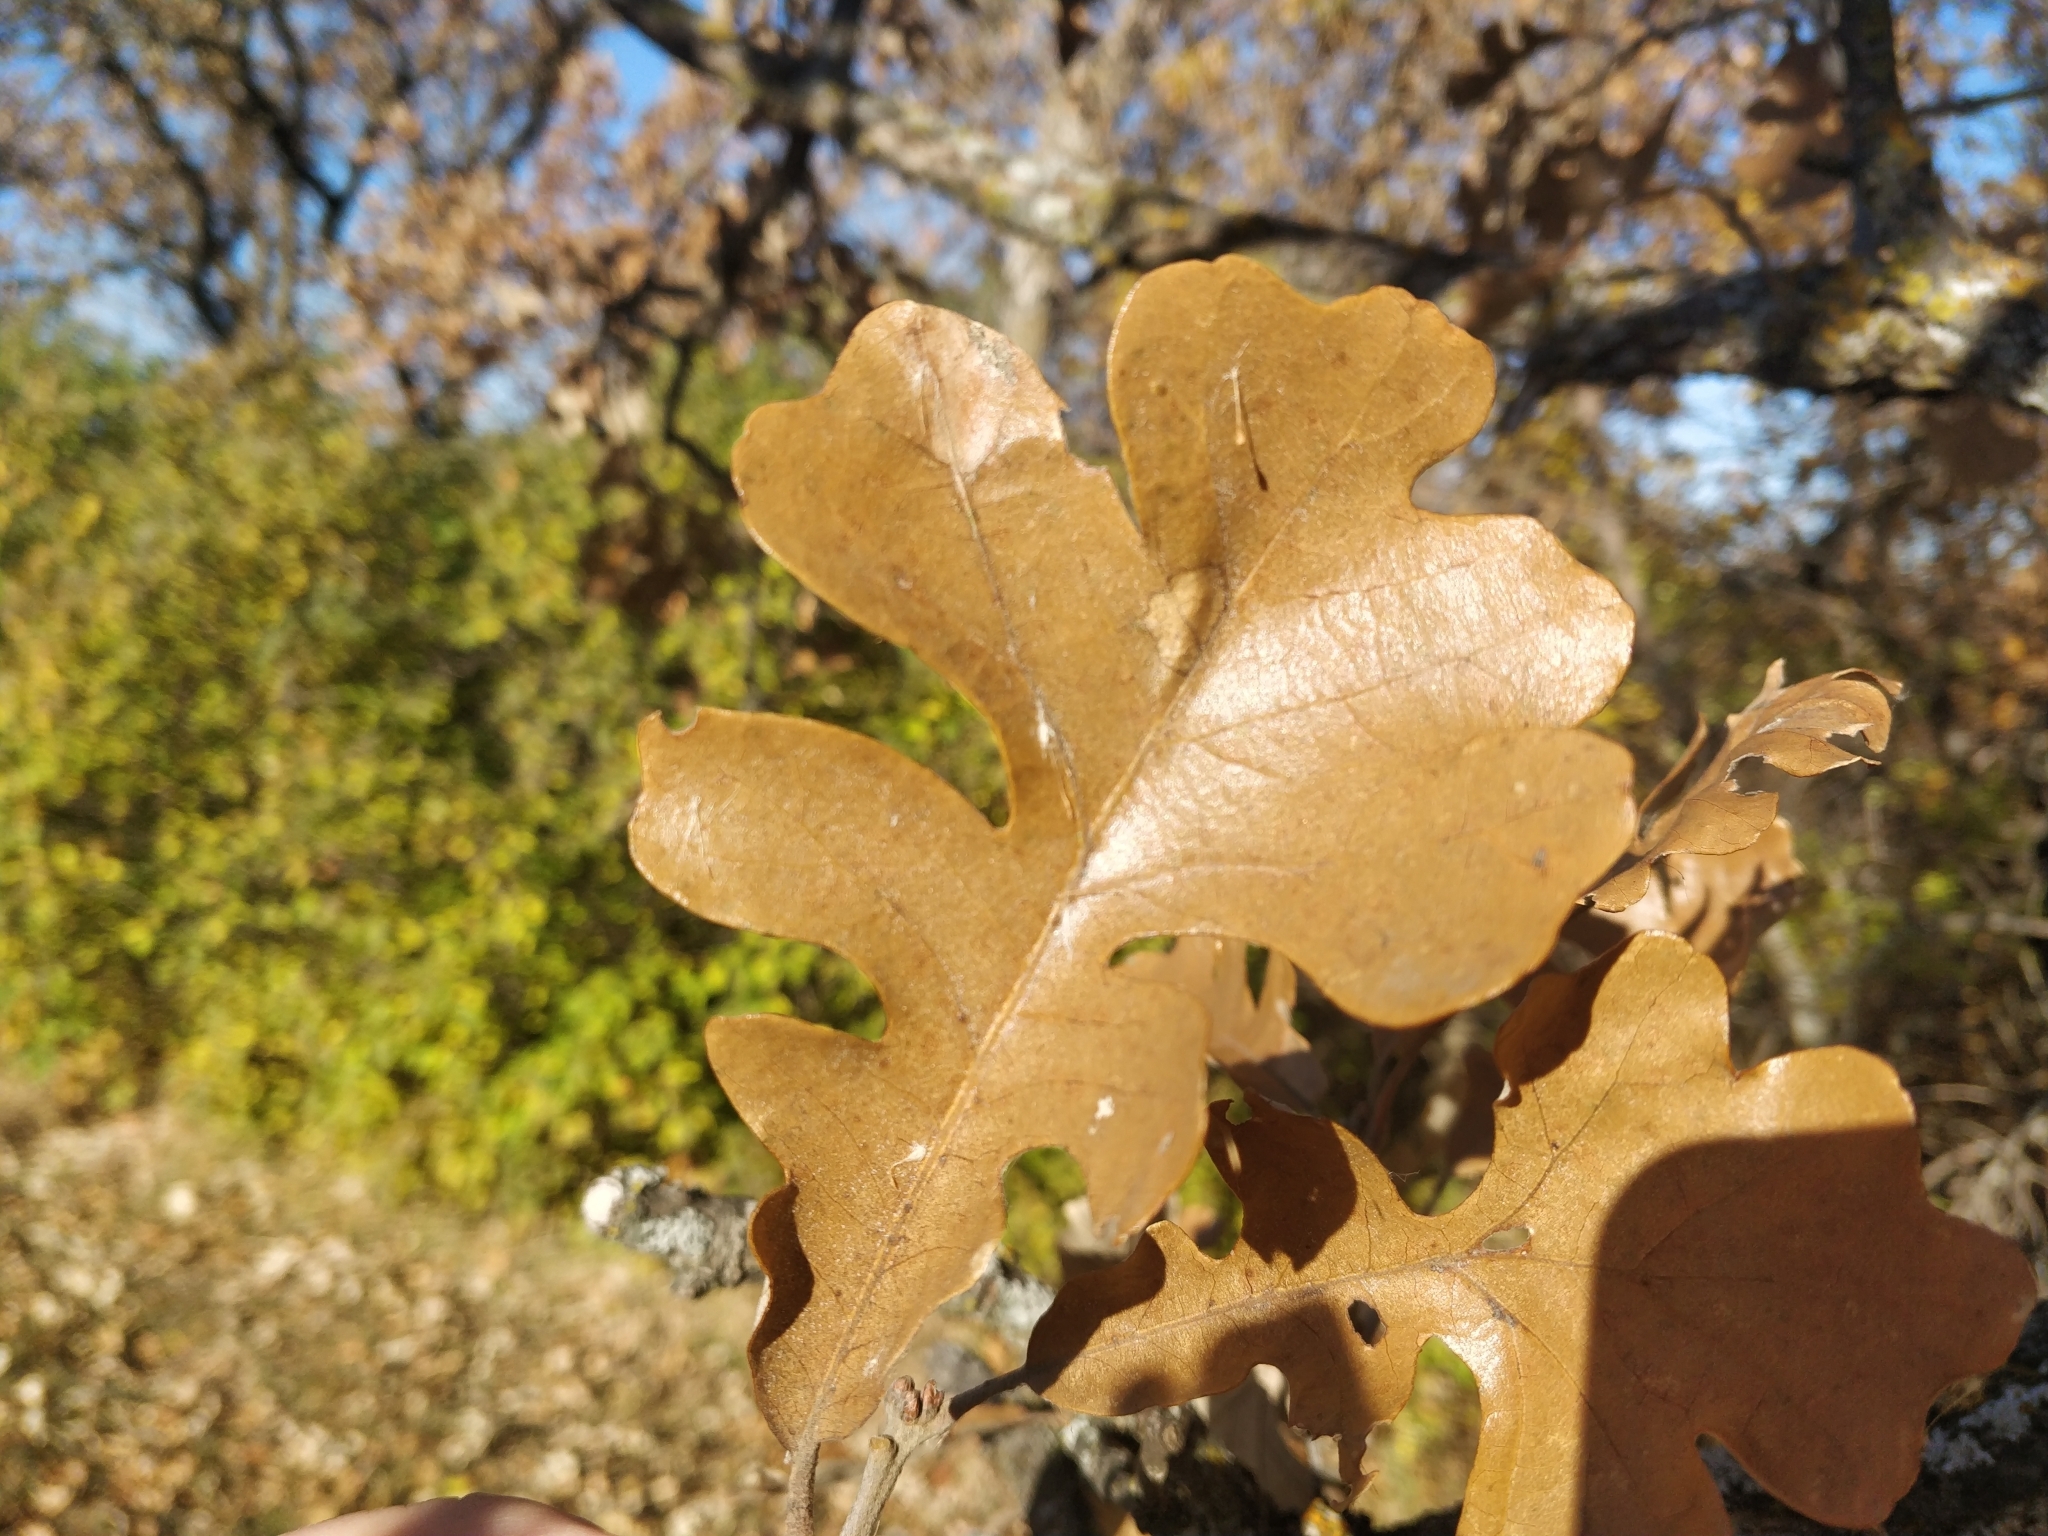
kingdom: Plantae
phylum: Tracheophyta
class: Magnoliopsida
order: Fagales
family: Fagaceae
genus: Quercus
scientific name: Quercus macrocarpa
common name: Bur oak
